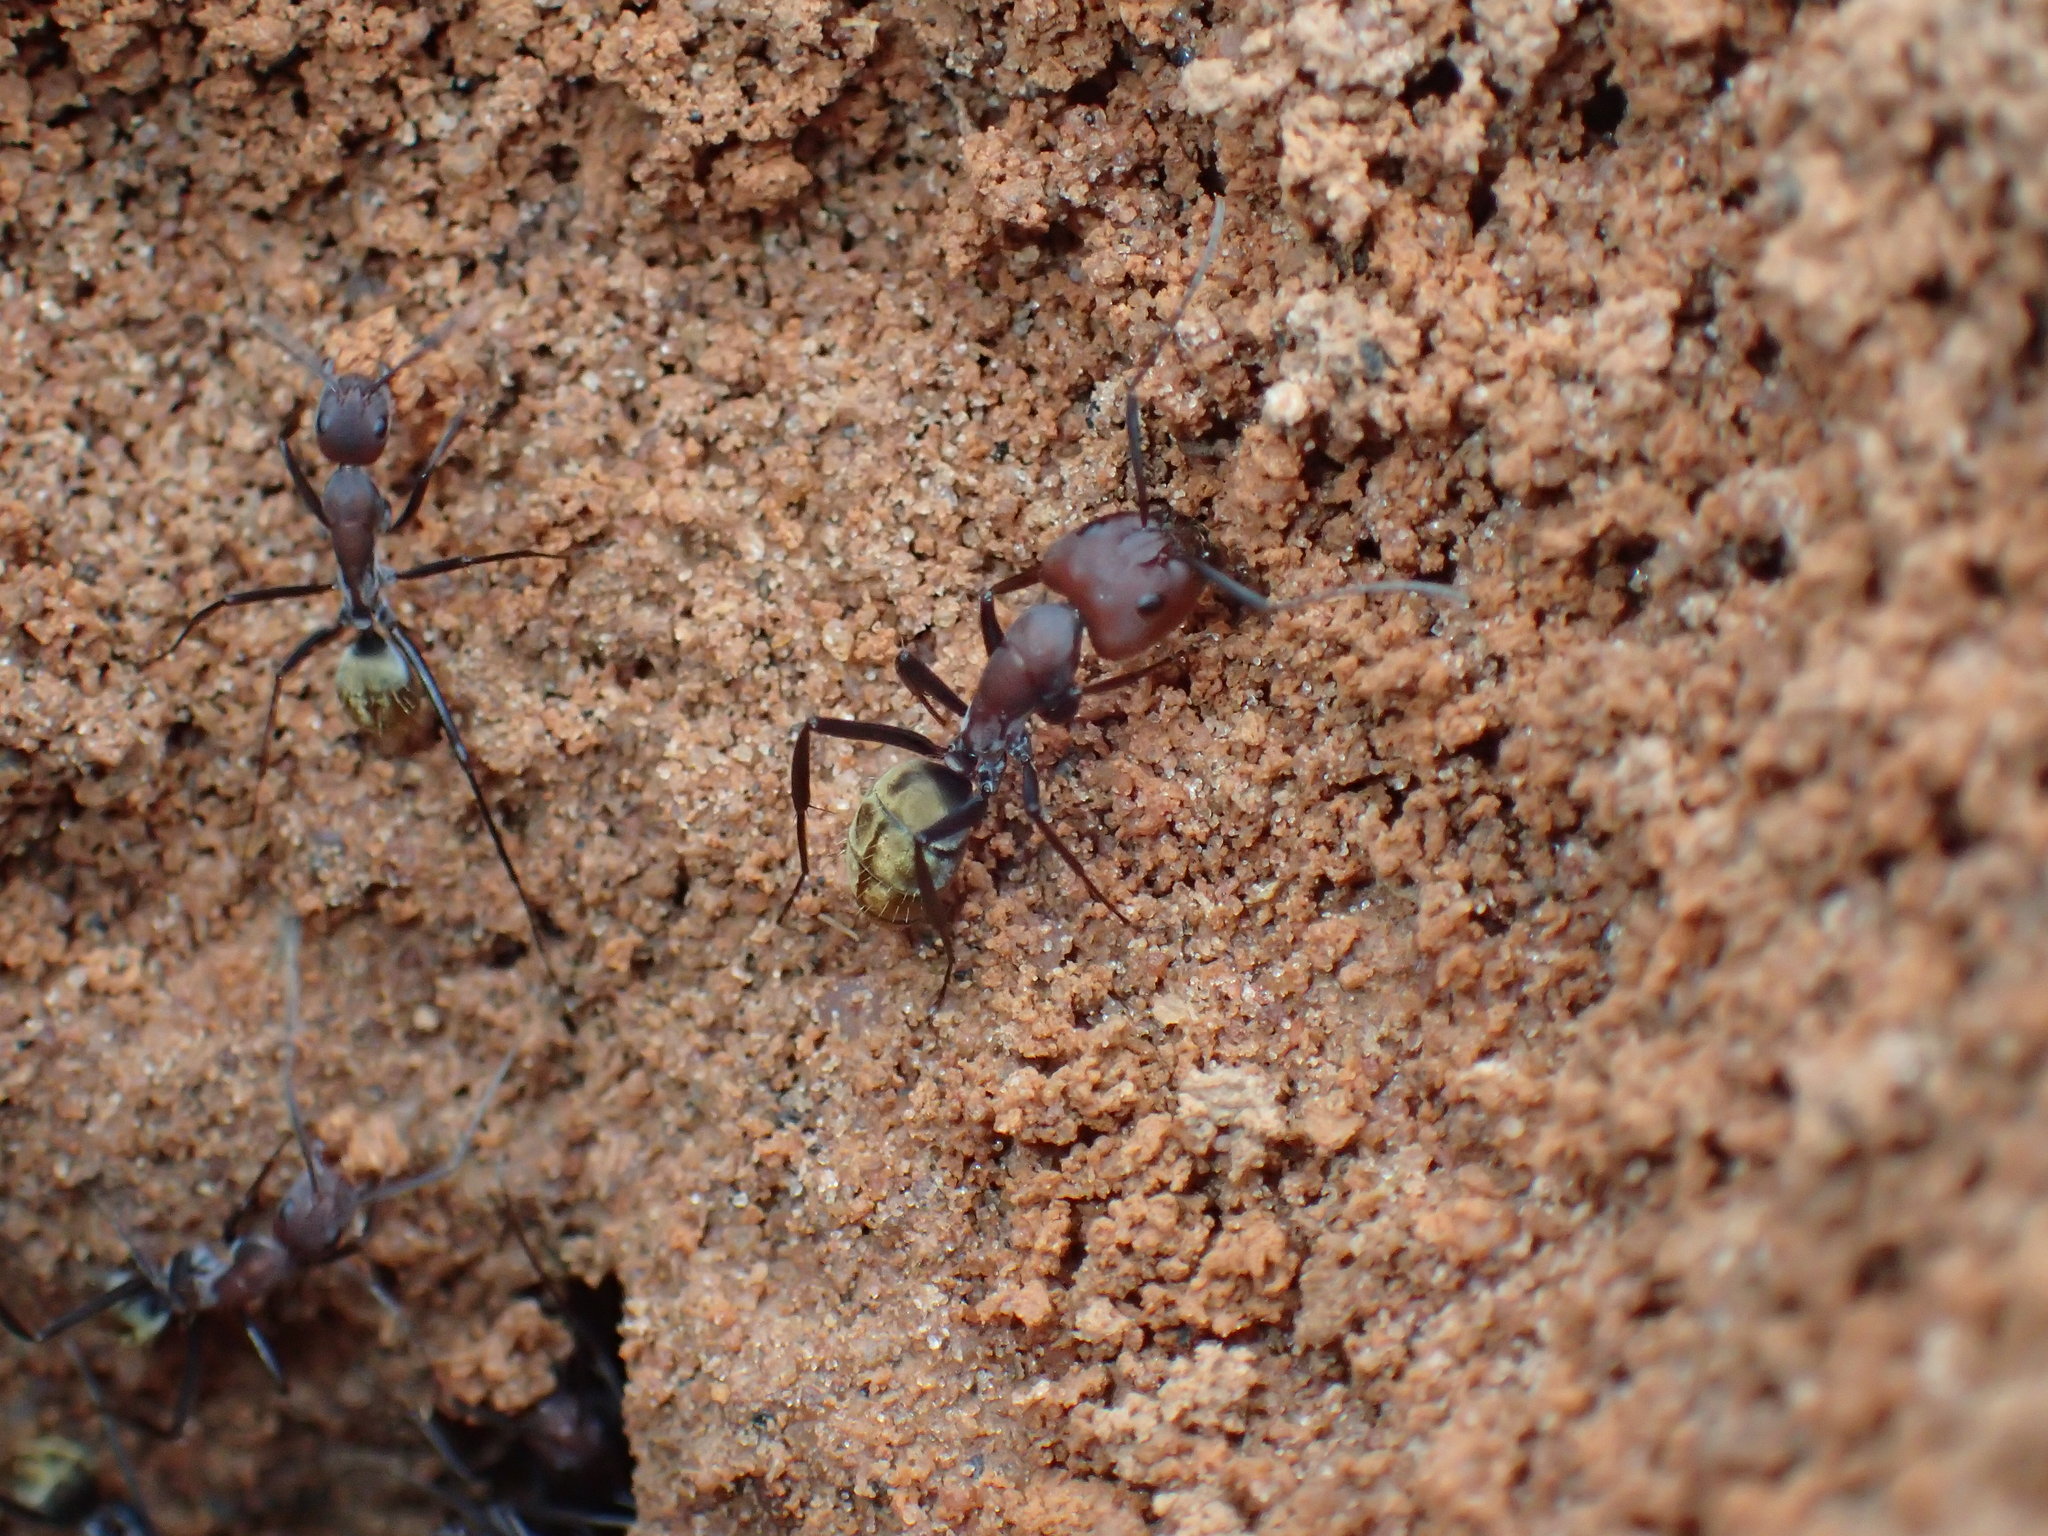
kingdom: Animalia
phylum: Arthropoda
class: Insecta
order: Hymenoptera
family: Formicidae
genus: Camponotus
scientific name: Camponotus vestitus
